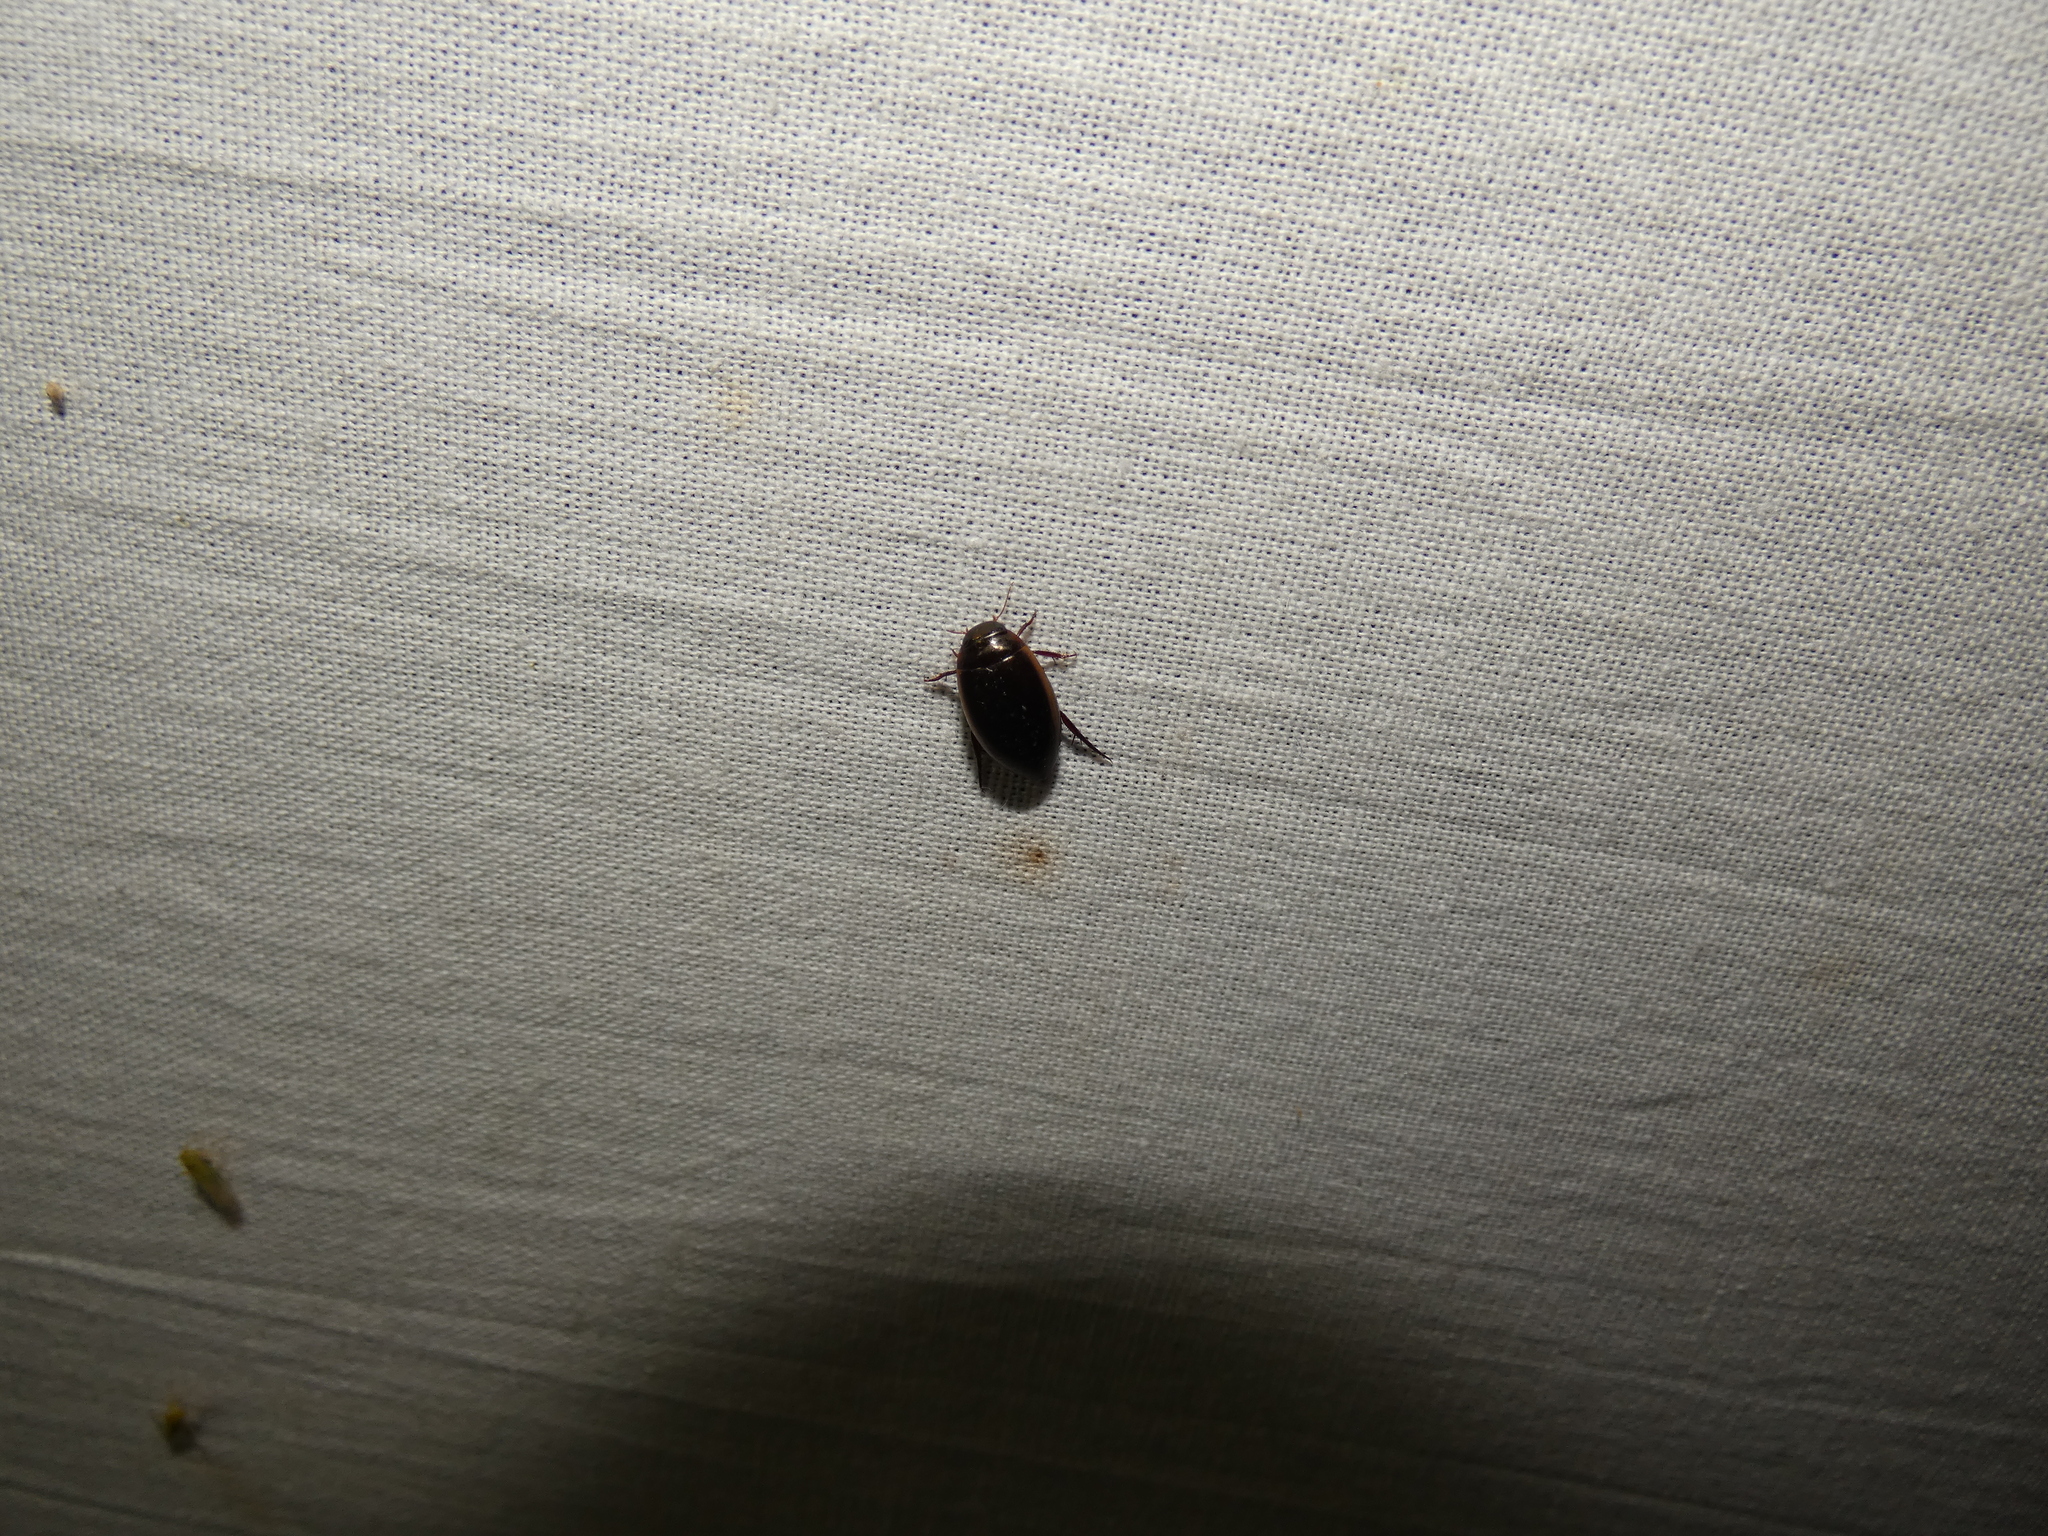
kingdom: Animalia
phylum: Arthropoda
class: Insecta
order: Coleoptera
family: Dytiscidae
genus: Ilybius
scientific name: Ilybius fuliginosus
